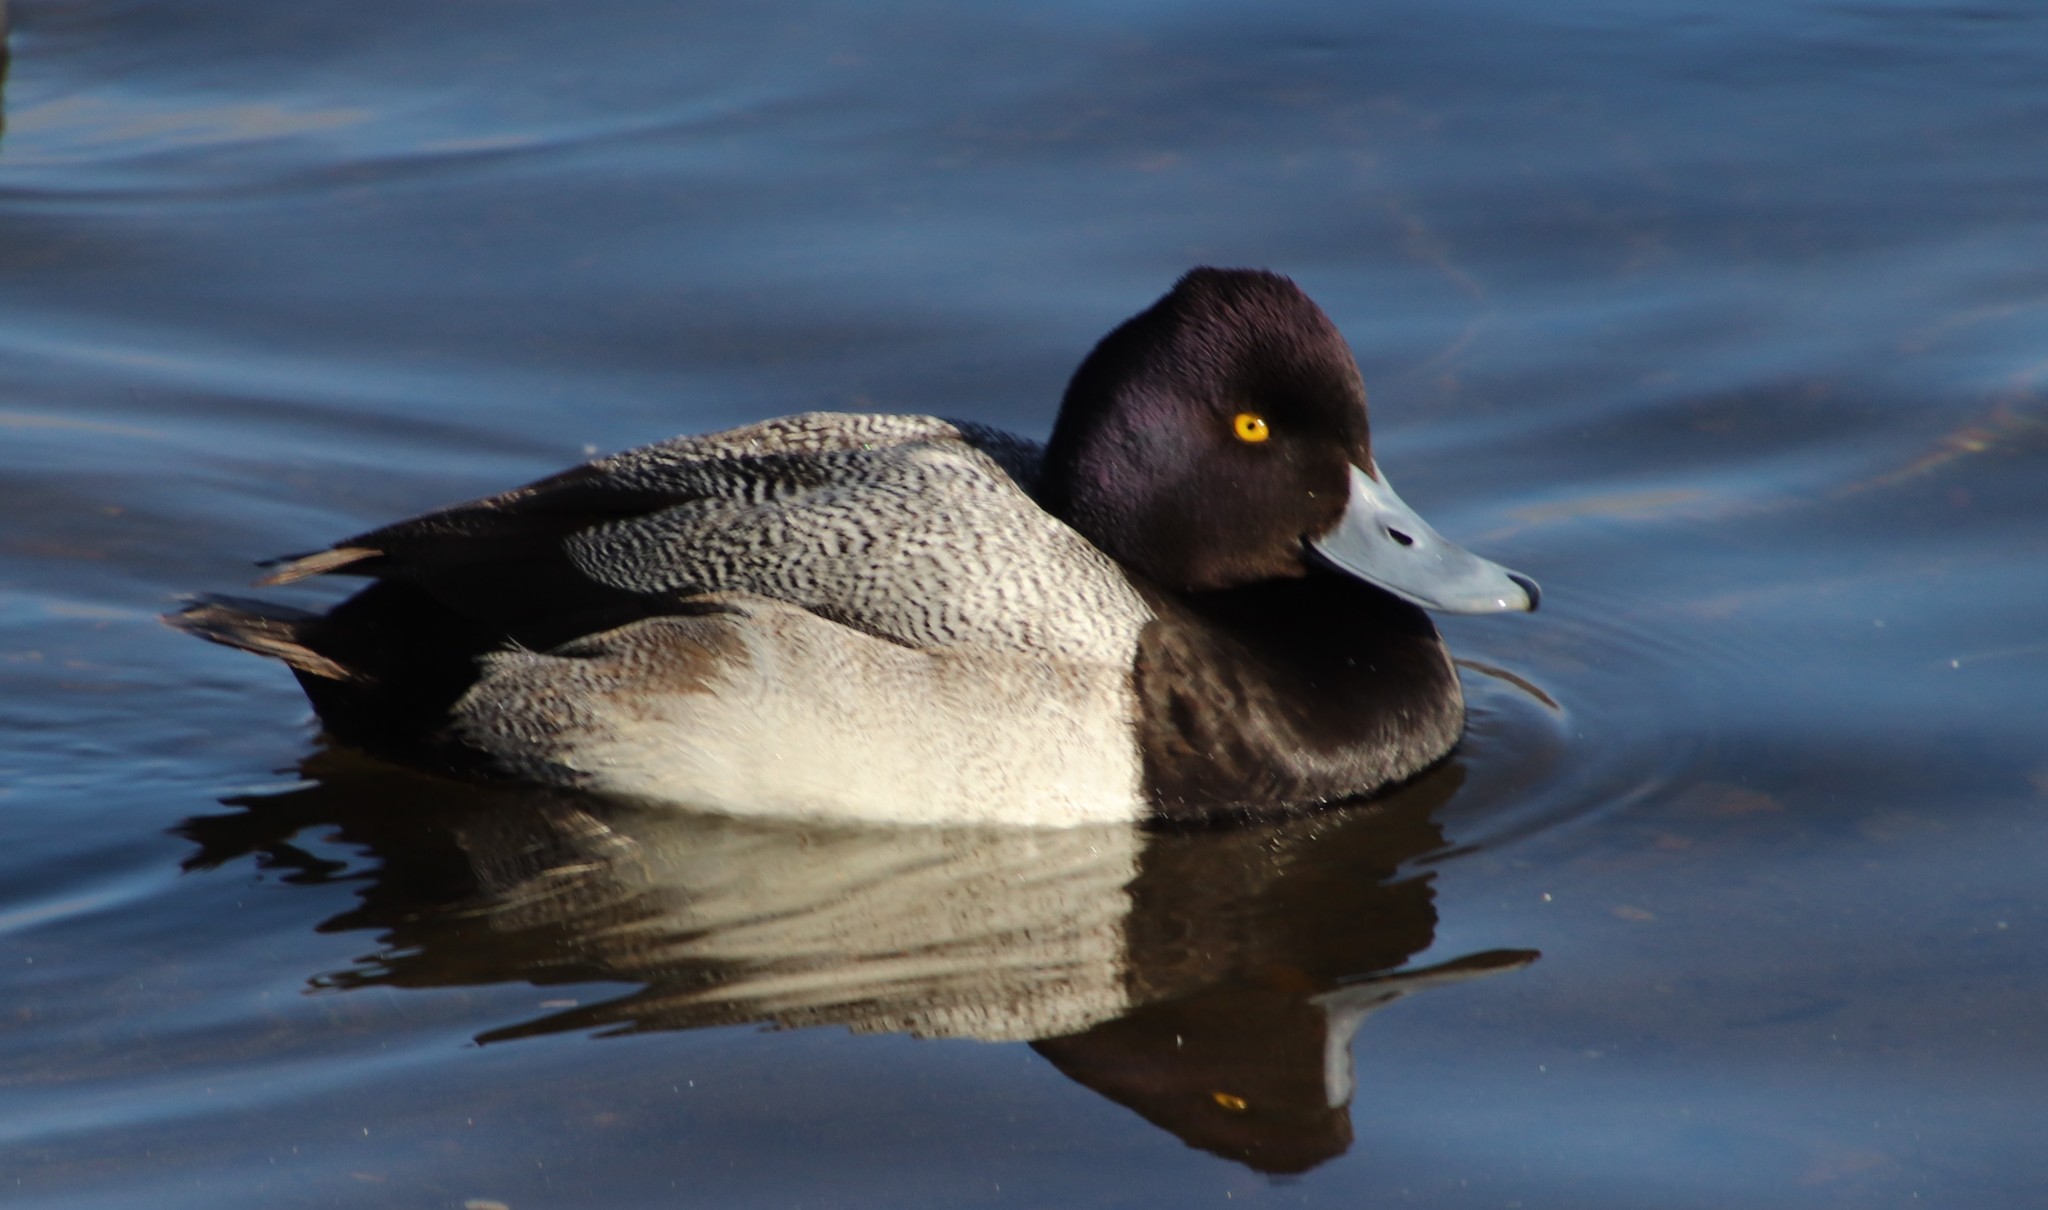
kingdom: Animalia
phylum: Chordata
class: Aves
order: Anseriformes
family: Anatidae
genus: Aythya
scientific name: Aythya affinis
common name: Lesser scaup
